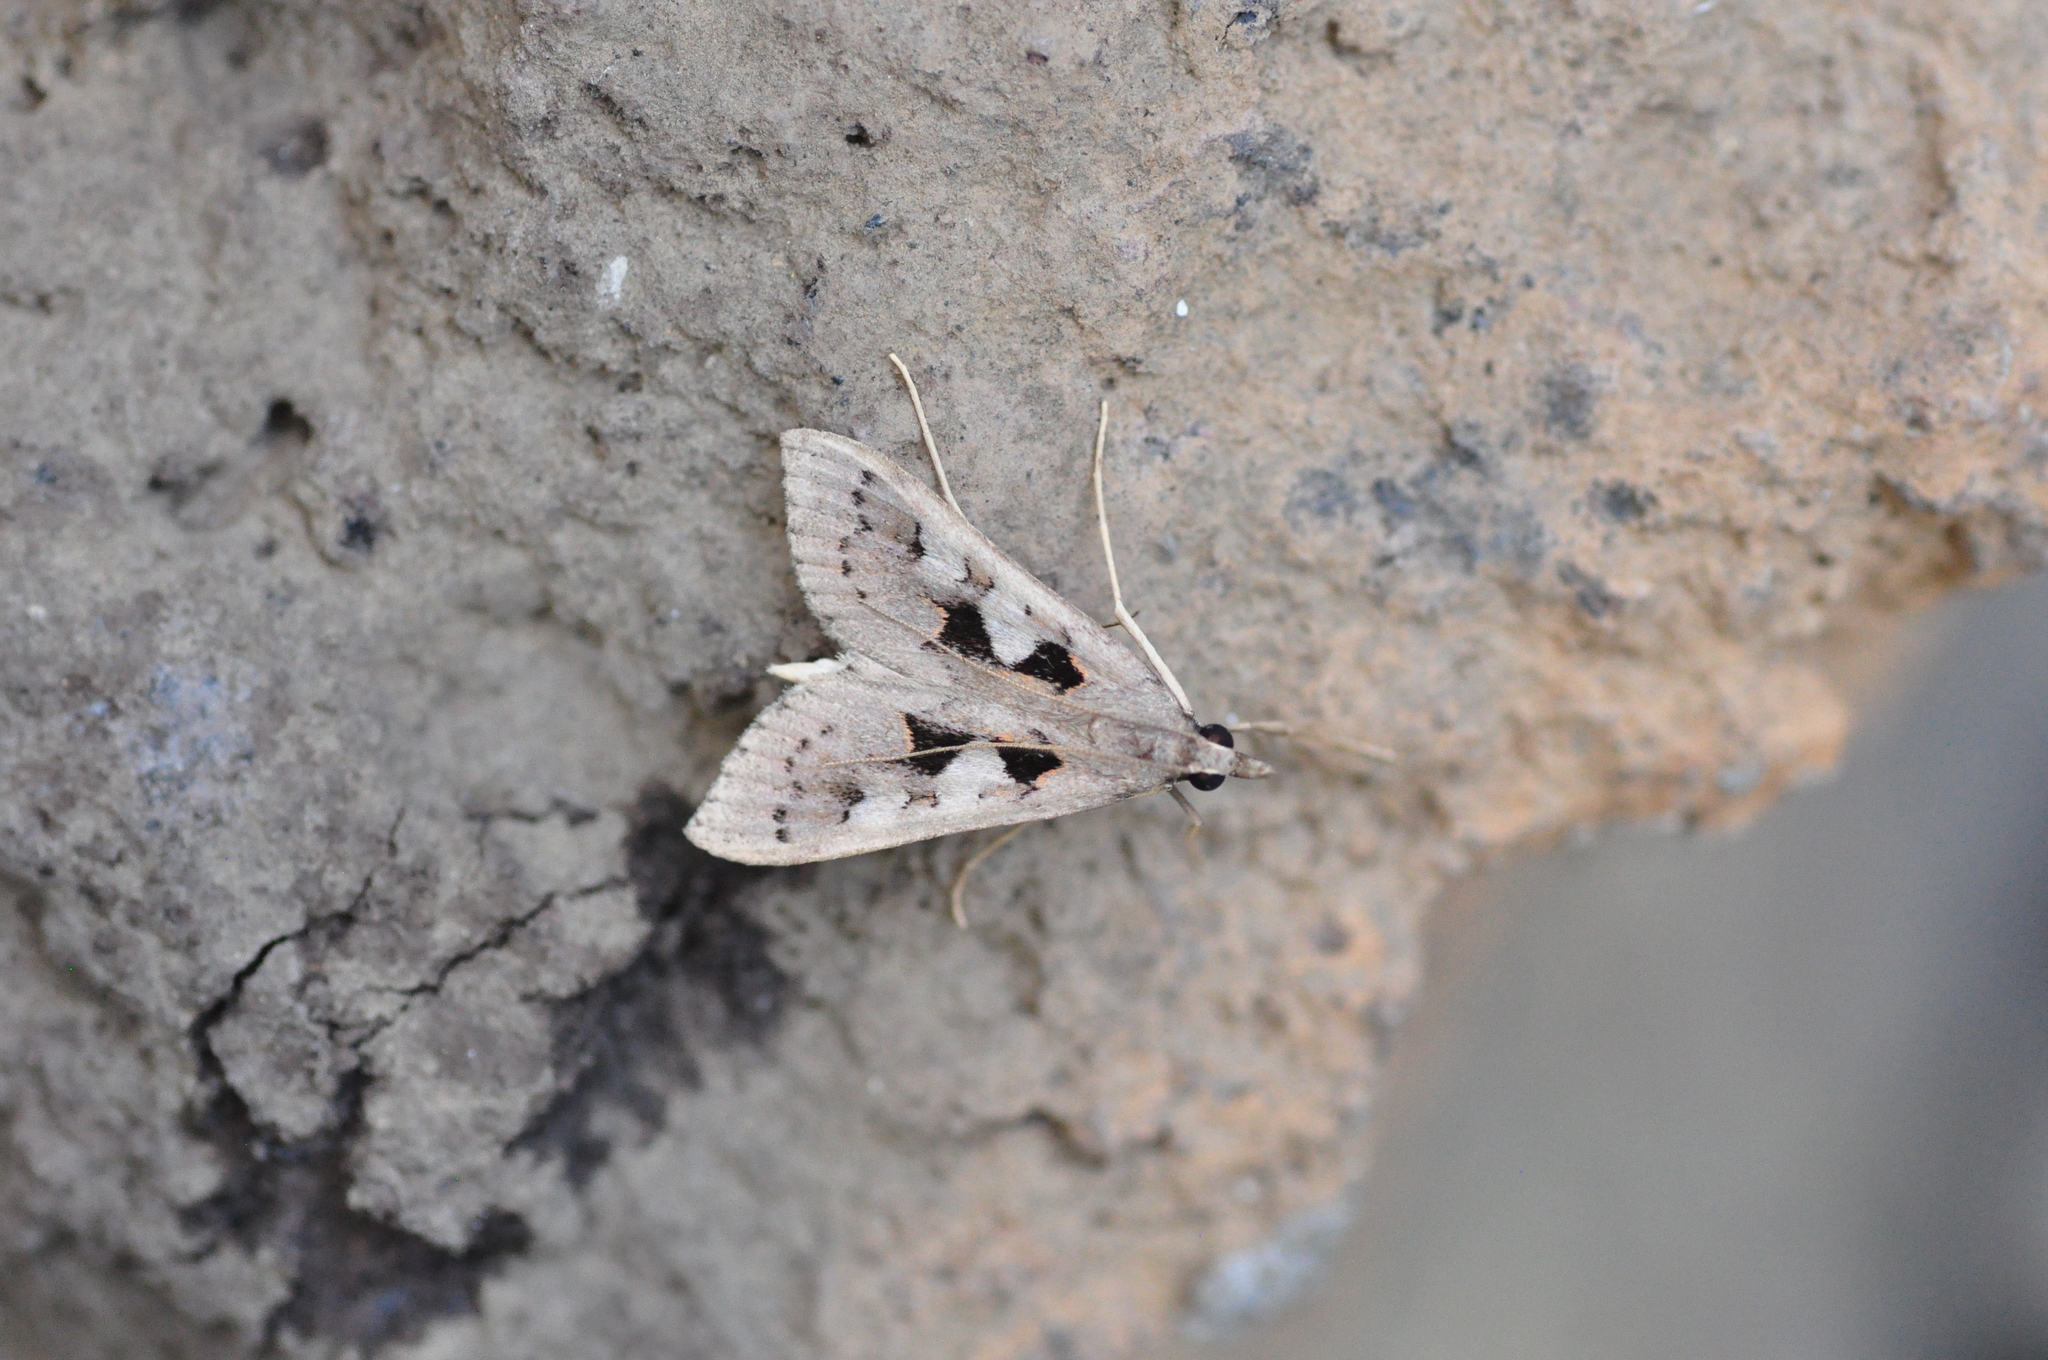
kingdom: Animalia
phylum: Arthropoda
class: Insecta
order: Lepidoptera
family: Crambidae
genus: Mecyna
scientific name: Mecyna asinalis
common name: Coastal pearl
